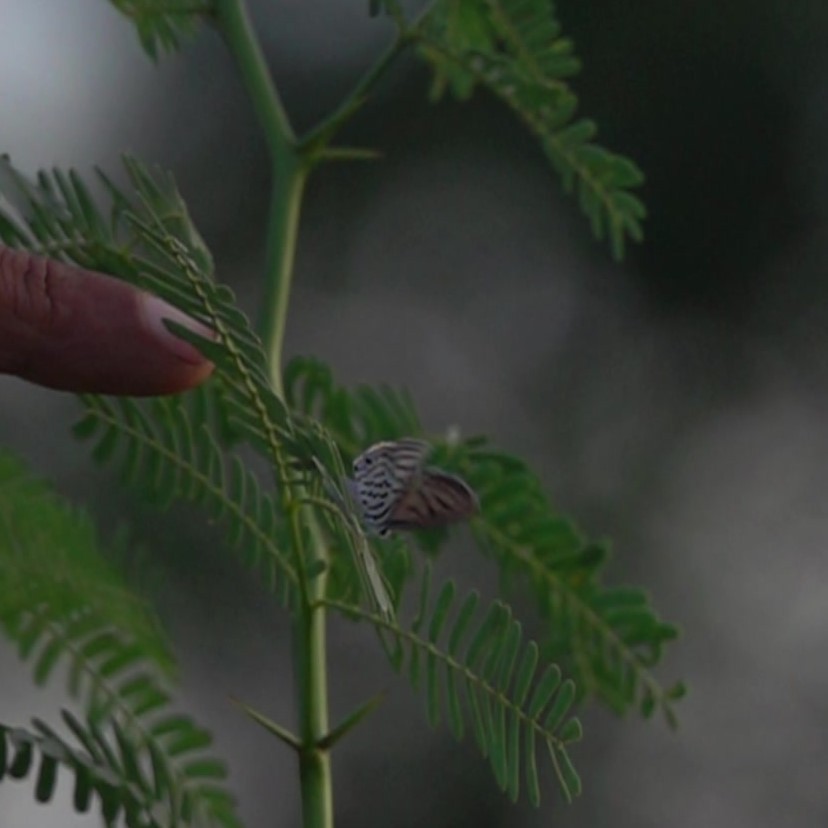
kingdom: Animalia
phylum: Arthropoda
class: Insecta
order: Lepidoptera
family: Lycaenidae
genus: Tarucus
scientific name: Tarucus balkanica
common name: Little tiger blue
